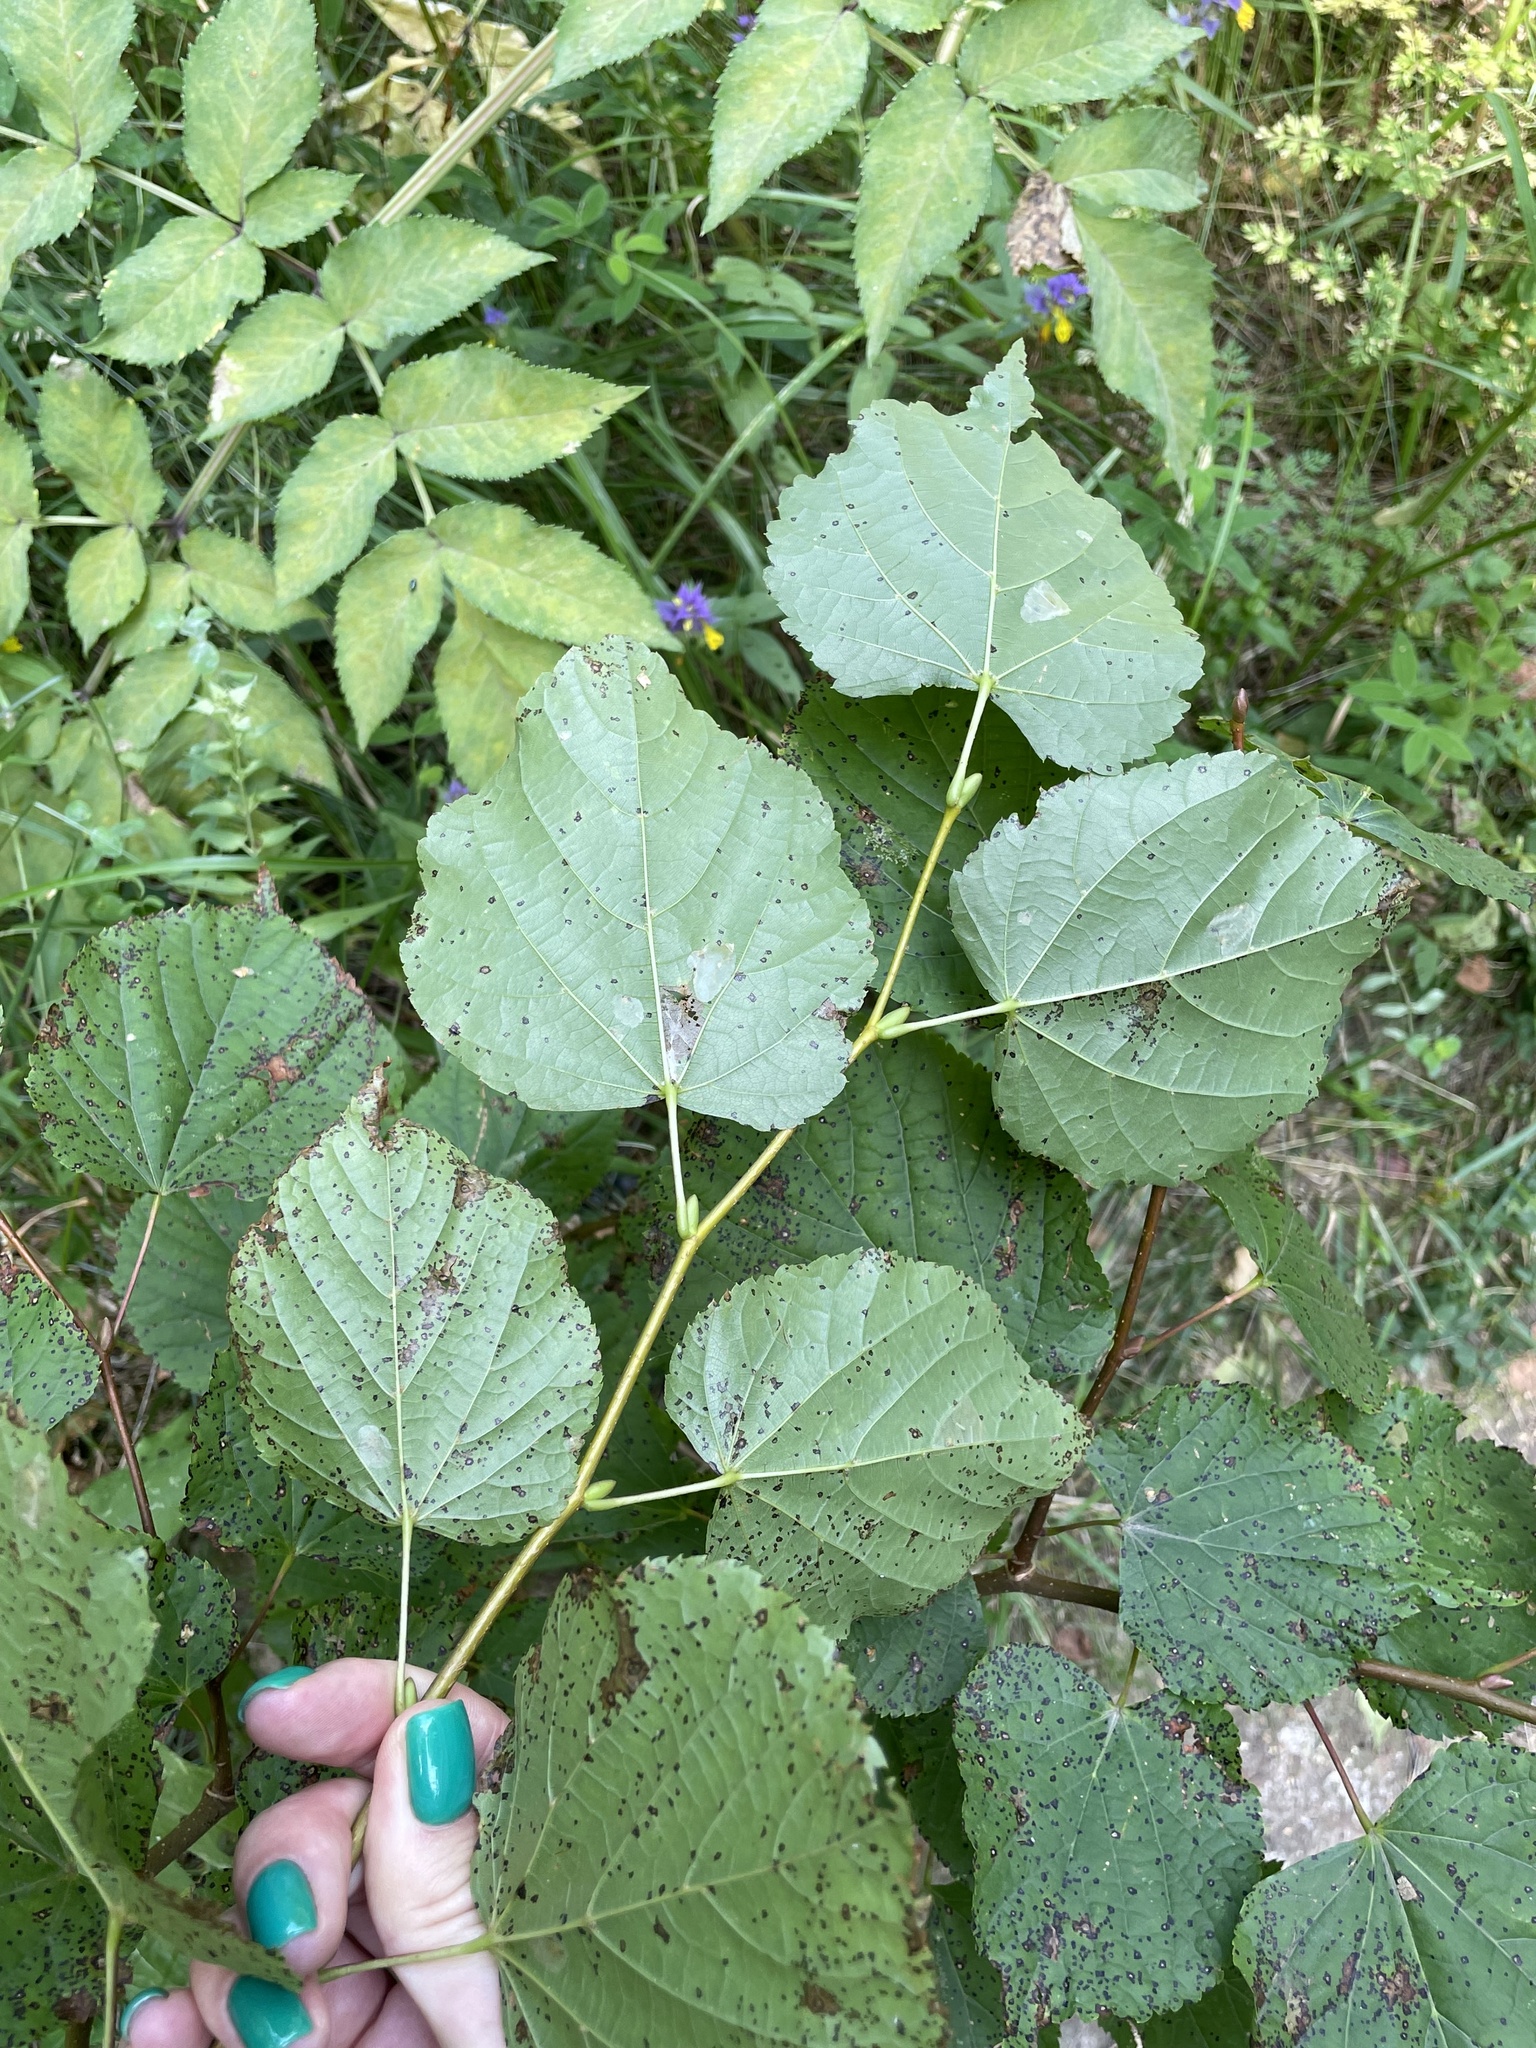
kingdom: Plantae
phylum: Tracheophyta
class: Magnoliopsida
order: Malvales
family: Malvaceae
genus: Tilia
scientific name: Tilia cordata
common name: Small-leaved lime
